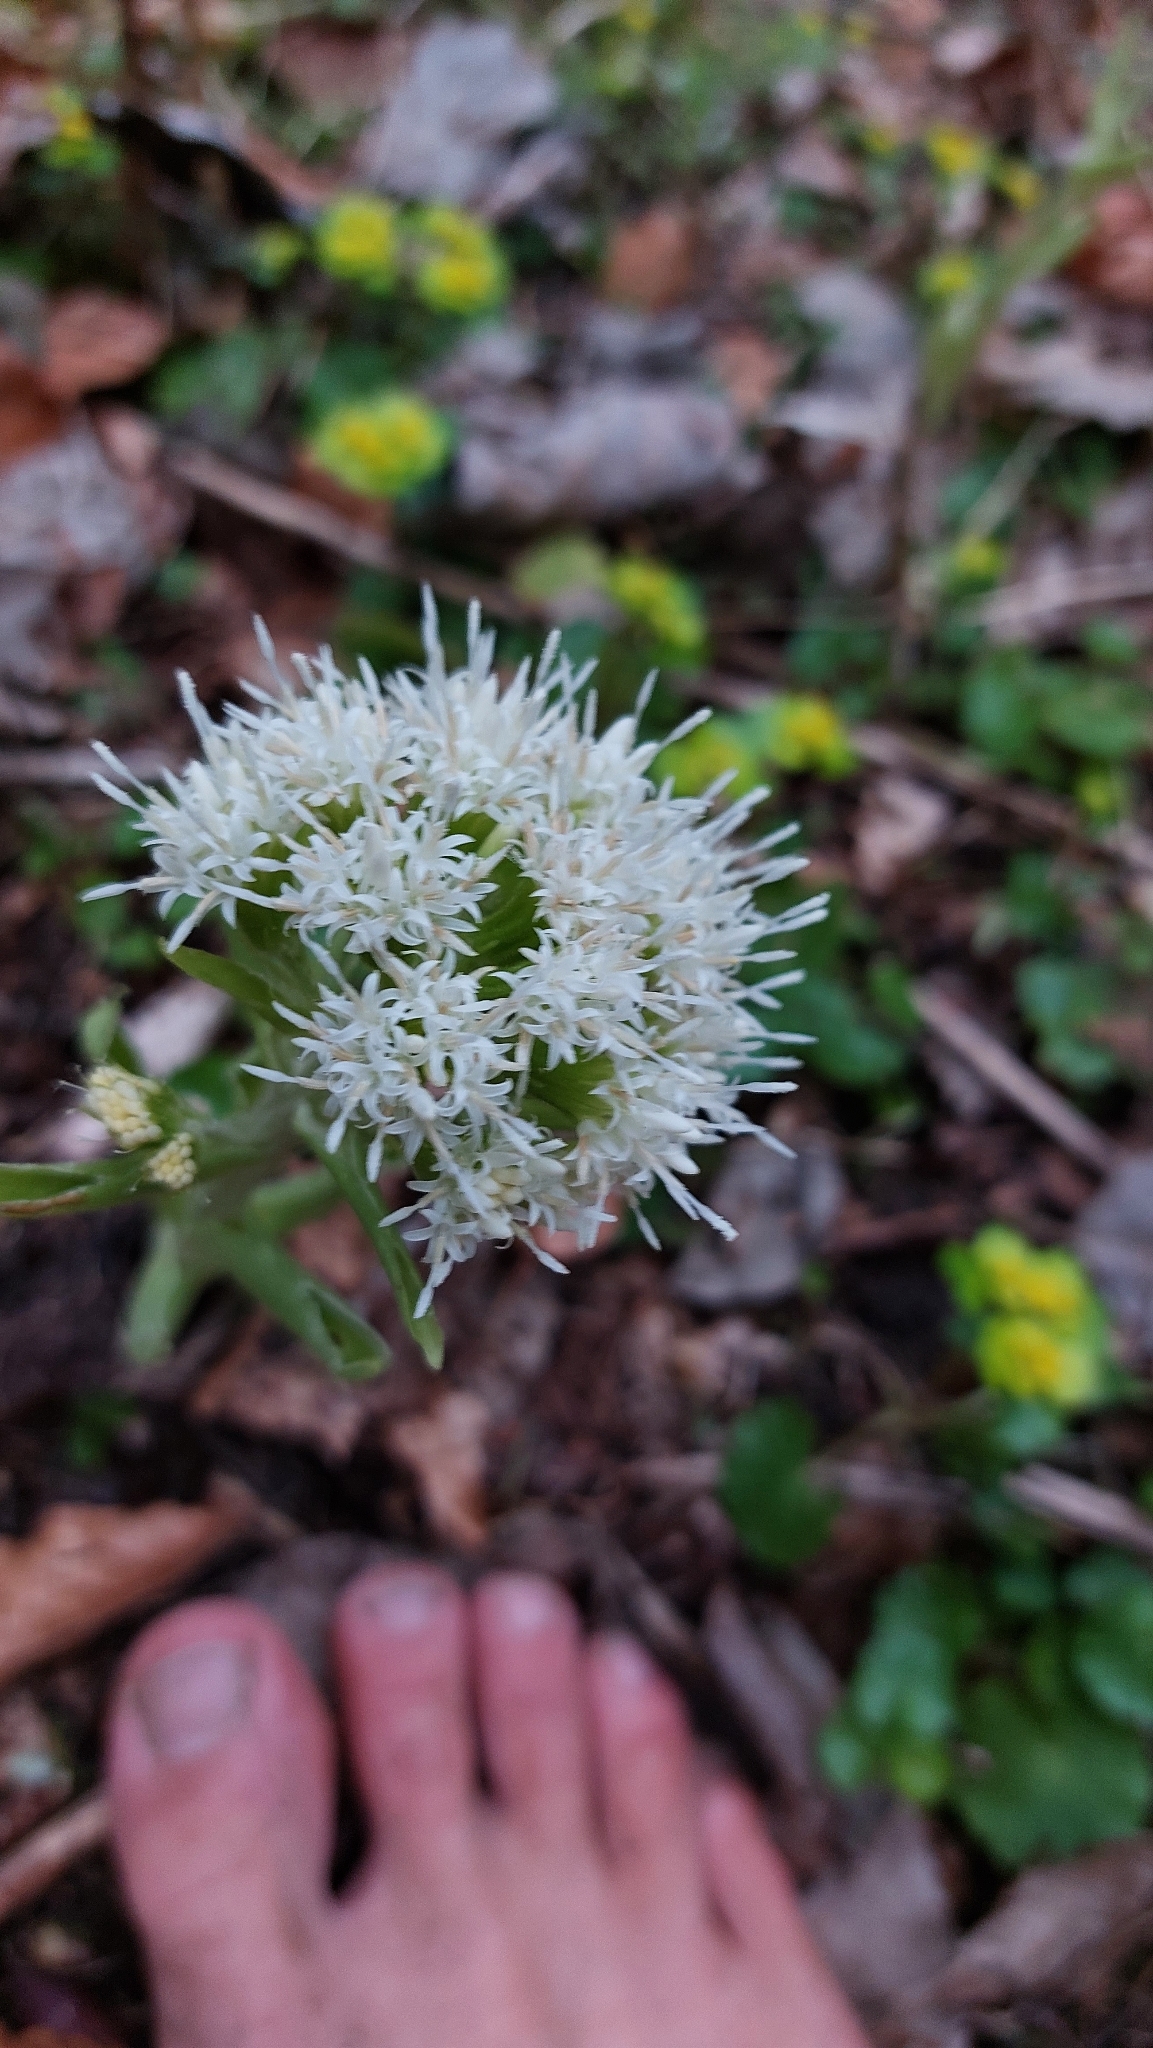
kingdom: Plantae
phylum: Tracheophyta
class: Magnoliopsida
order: Asterales
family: Asteraceae
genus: Petasites
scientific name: Petasites albus
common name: White butterbur
